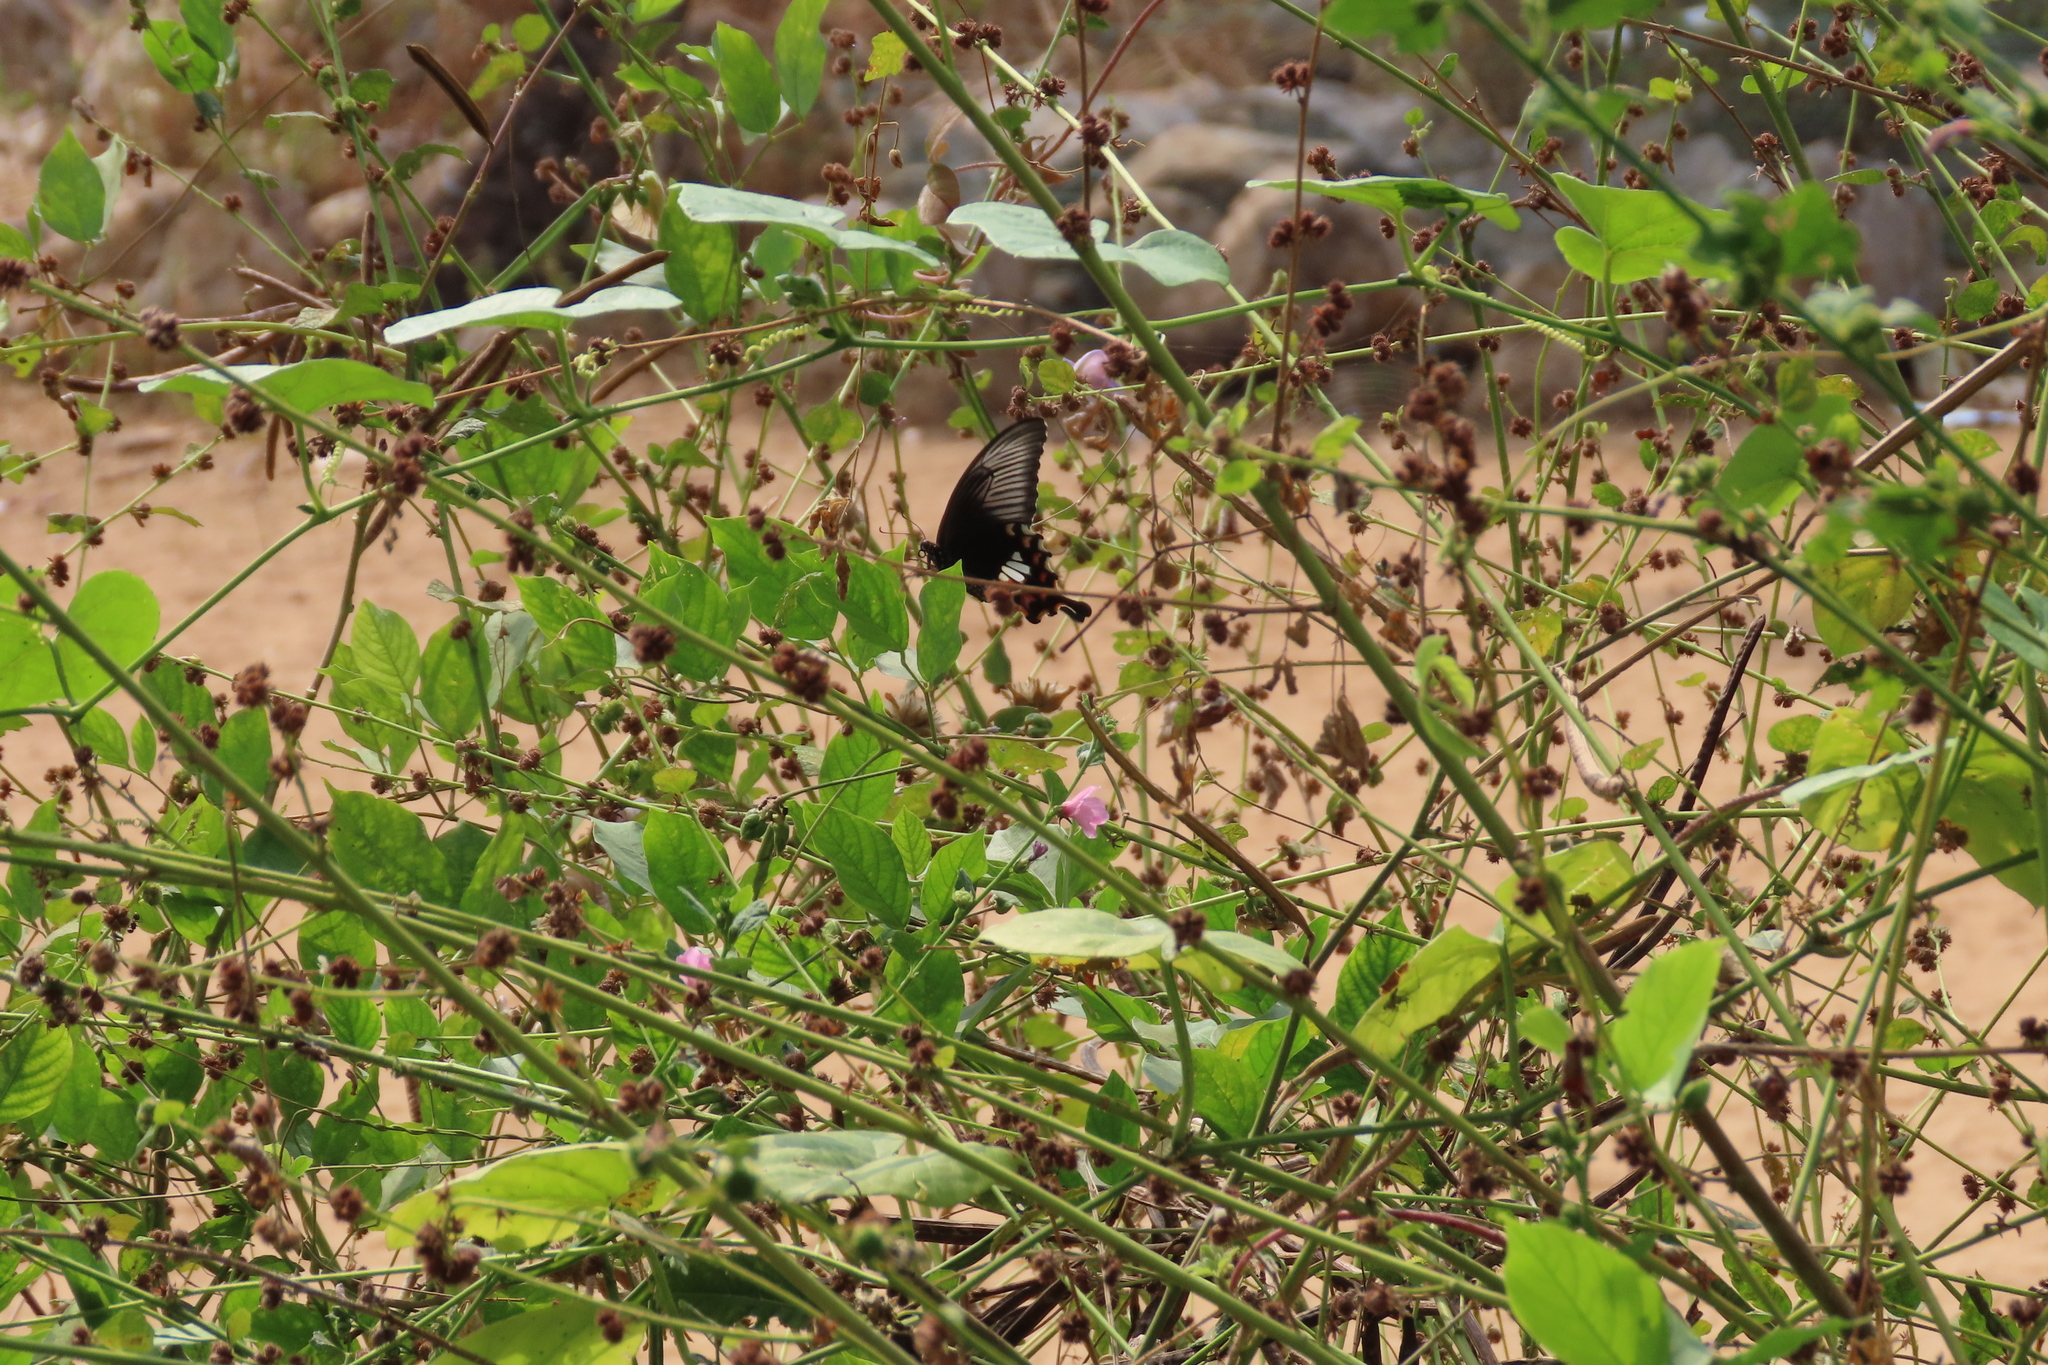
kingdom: Animalia
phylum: Arthropoda
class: Insecta
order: Lepidoptera
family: Papilionidae
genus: Papilio
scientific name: Papilio polytes
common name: Common mormon
